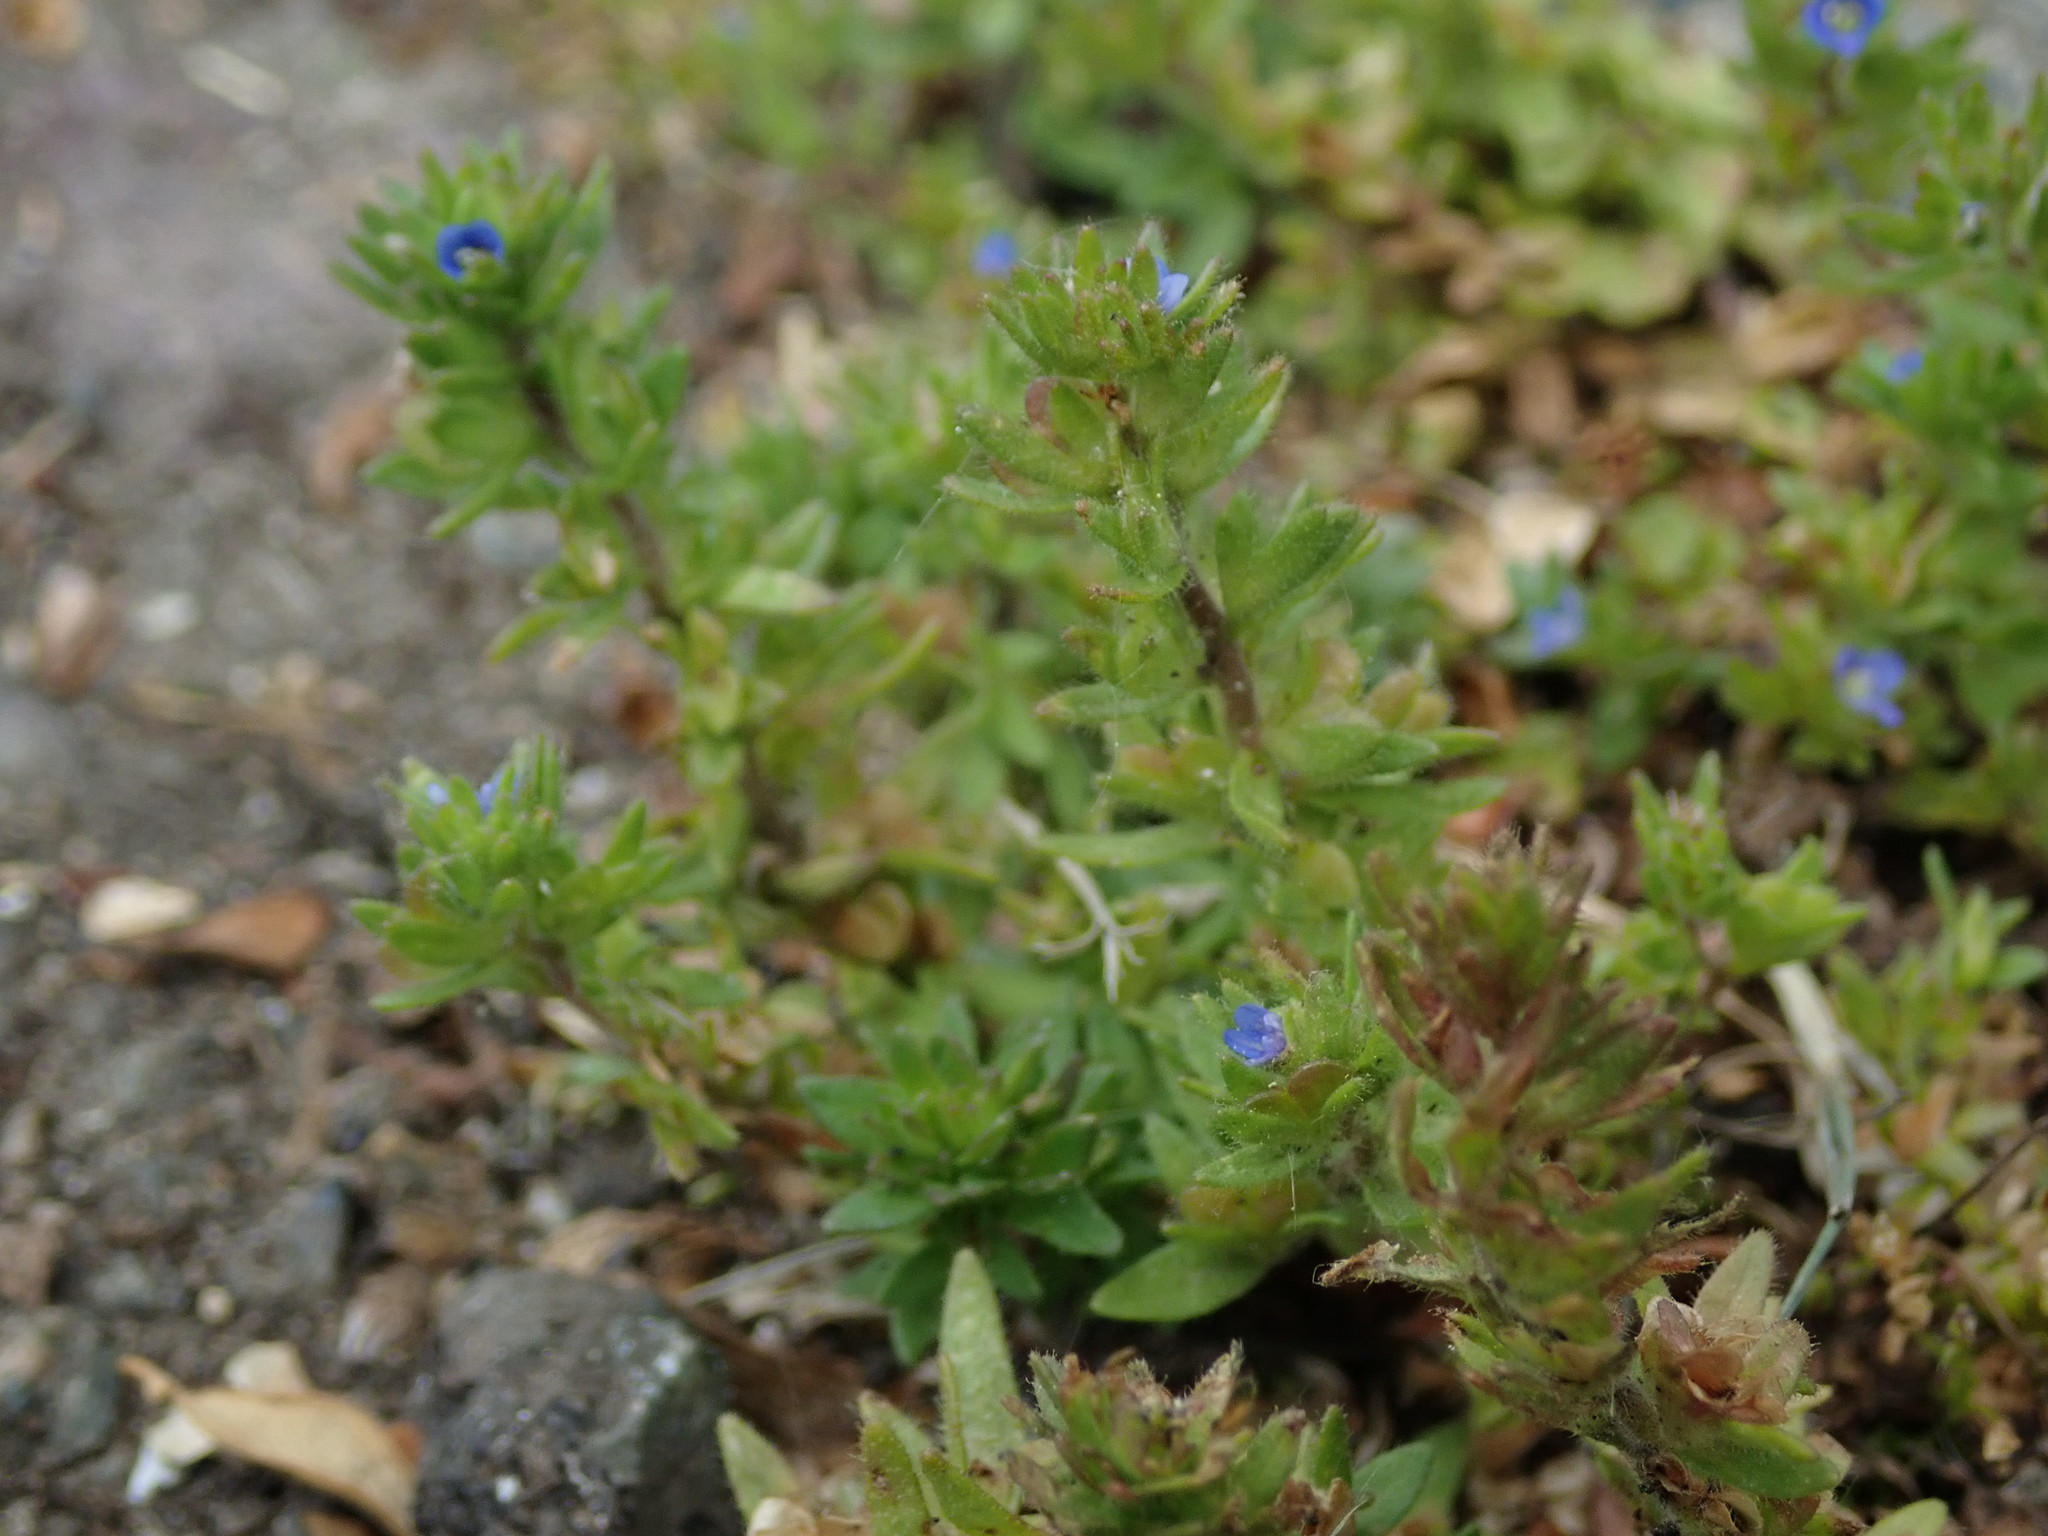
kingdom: Plantae
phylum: Tracheophyta
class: Magnoliopsida
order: Lamiales
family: Plantaginaceae
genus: Veronica
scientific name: Veronica arvensis
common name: Corn speedwell
